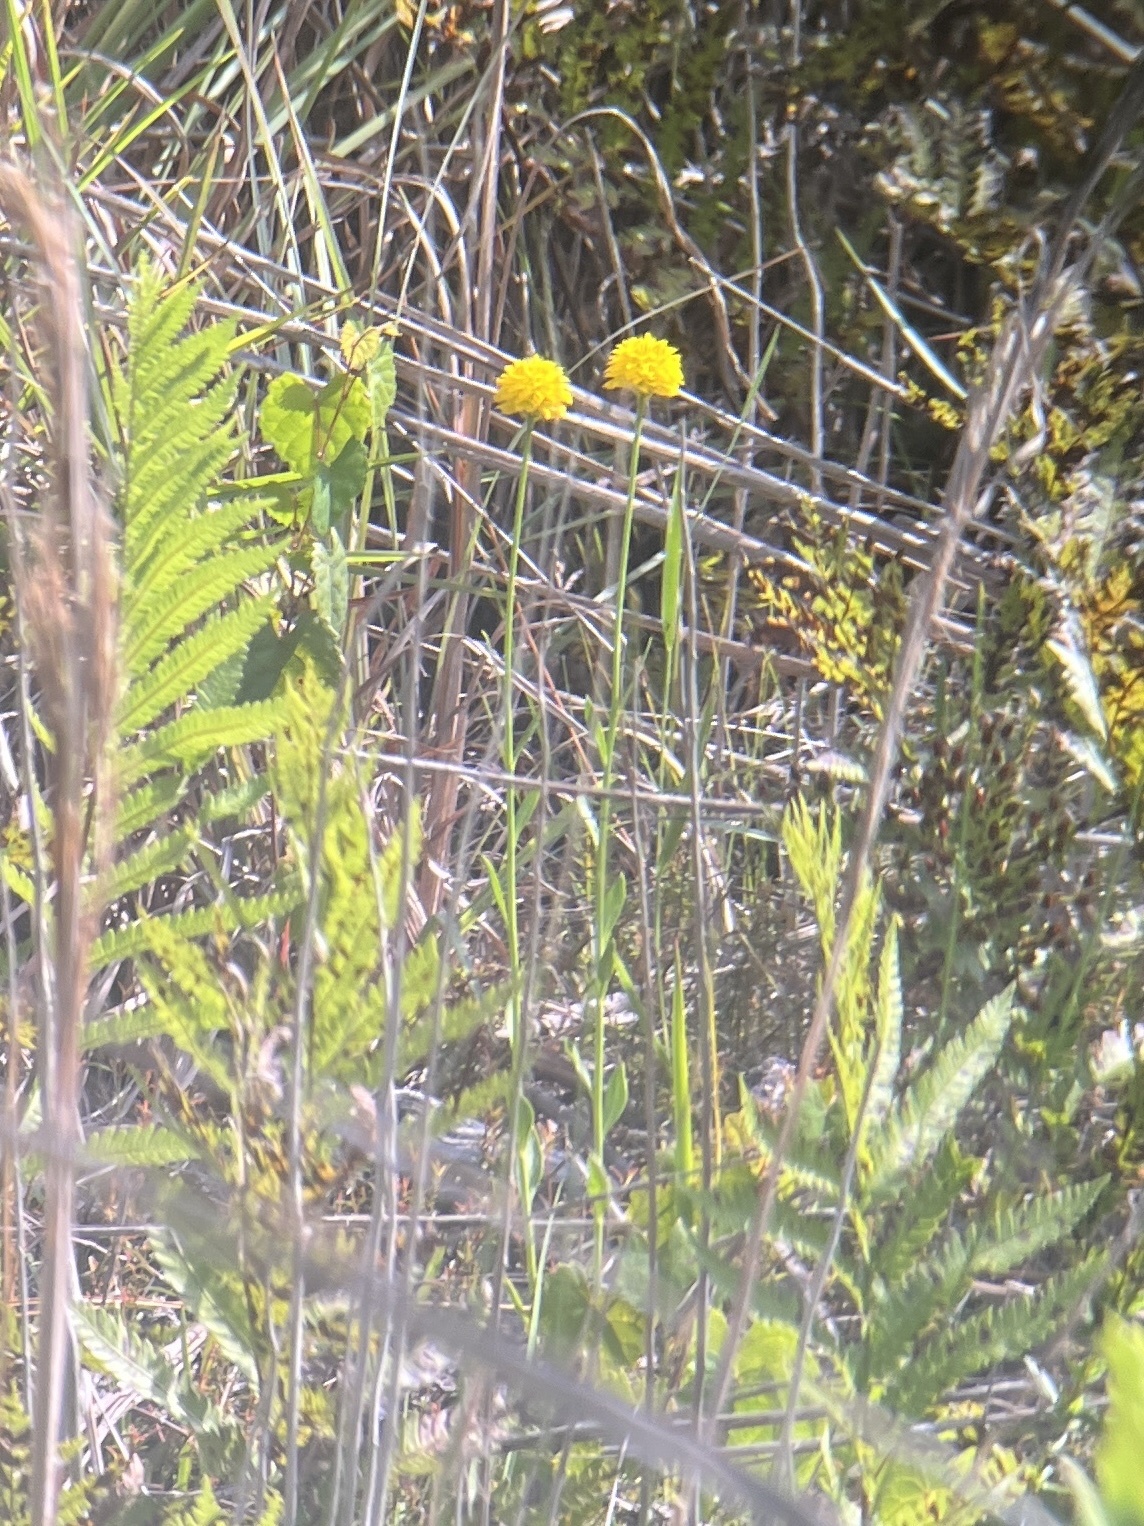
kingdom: Plantae
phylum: Tracheophyta
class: Magnoliopsida
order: Fabales
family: Polygalaceae
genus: Polygala
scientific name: Polygala rugelii
